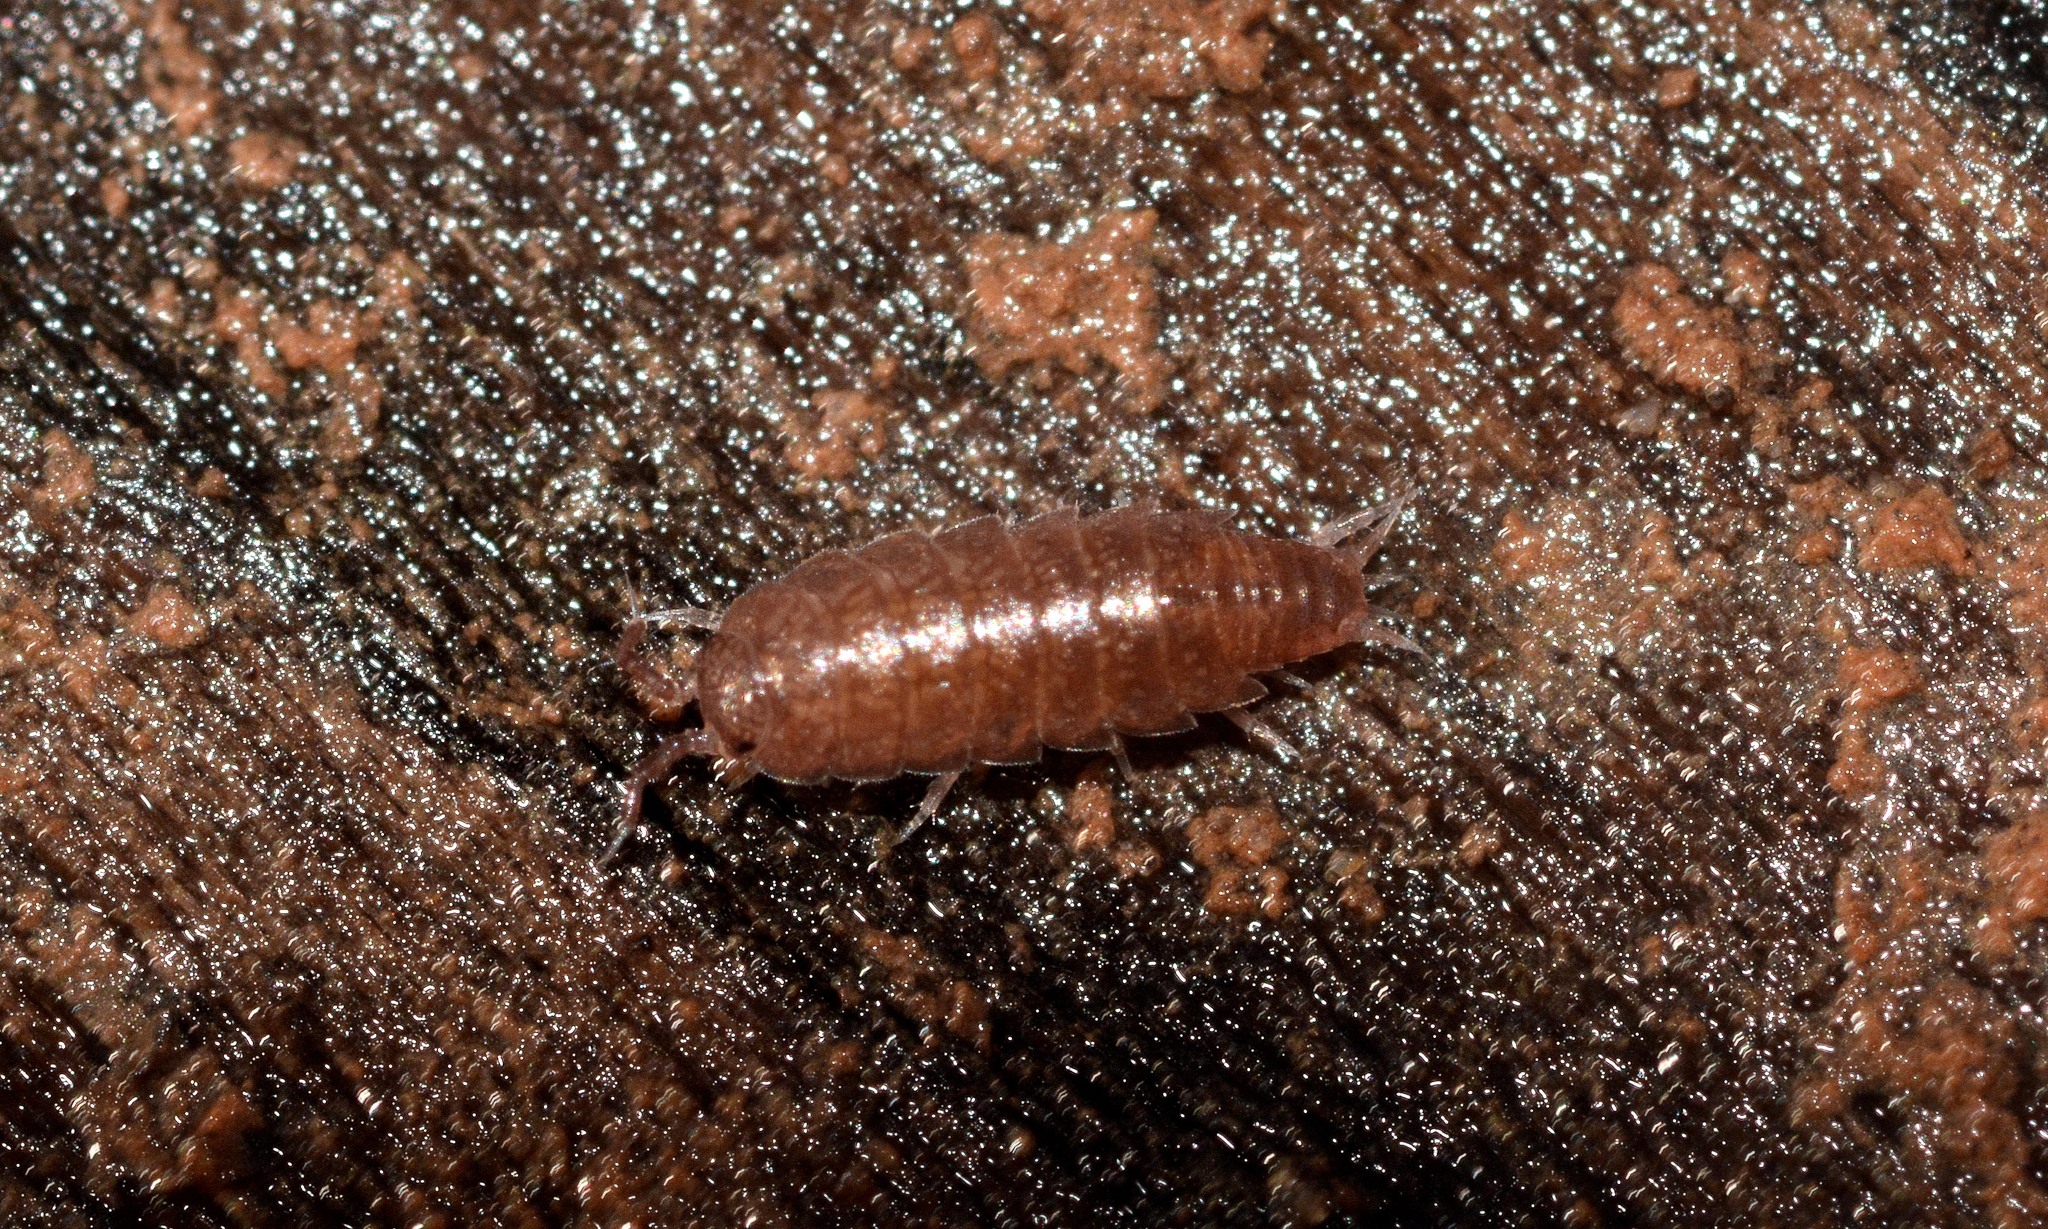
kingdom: Animalia
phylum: Arthropoda
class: Malacostraca
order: Isopoda
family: Trichoniscidae
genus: Trichoniscus
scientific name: Trichoniscus
